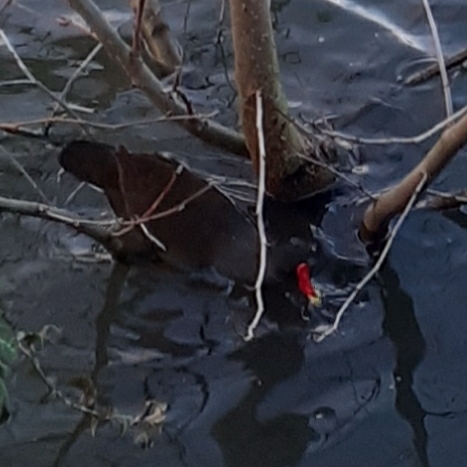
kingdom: Animalia
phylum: Chordata
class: Aves
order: Gruiformes
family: Rallidae
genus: Gallinula
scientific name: Gallinula chloropus
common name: Common moorhen
